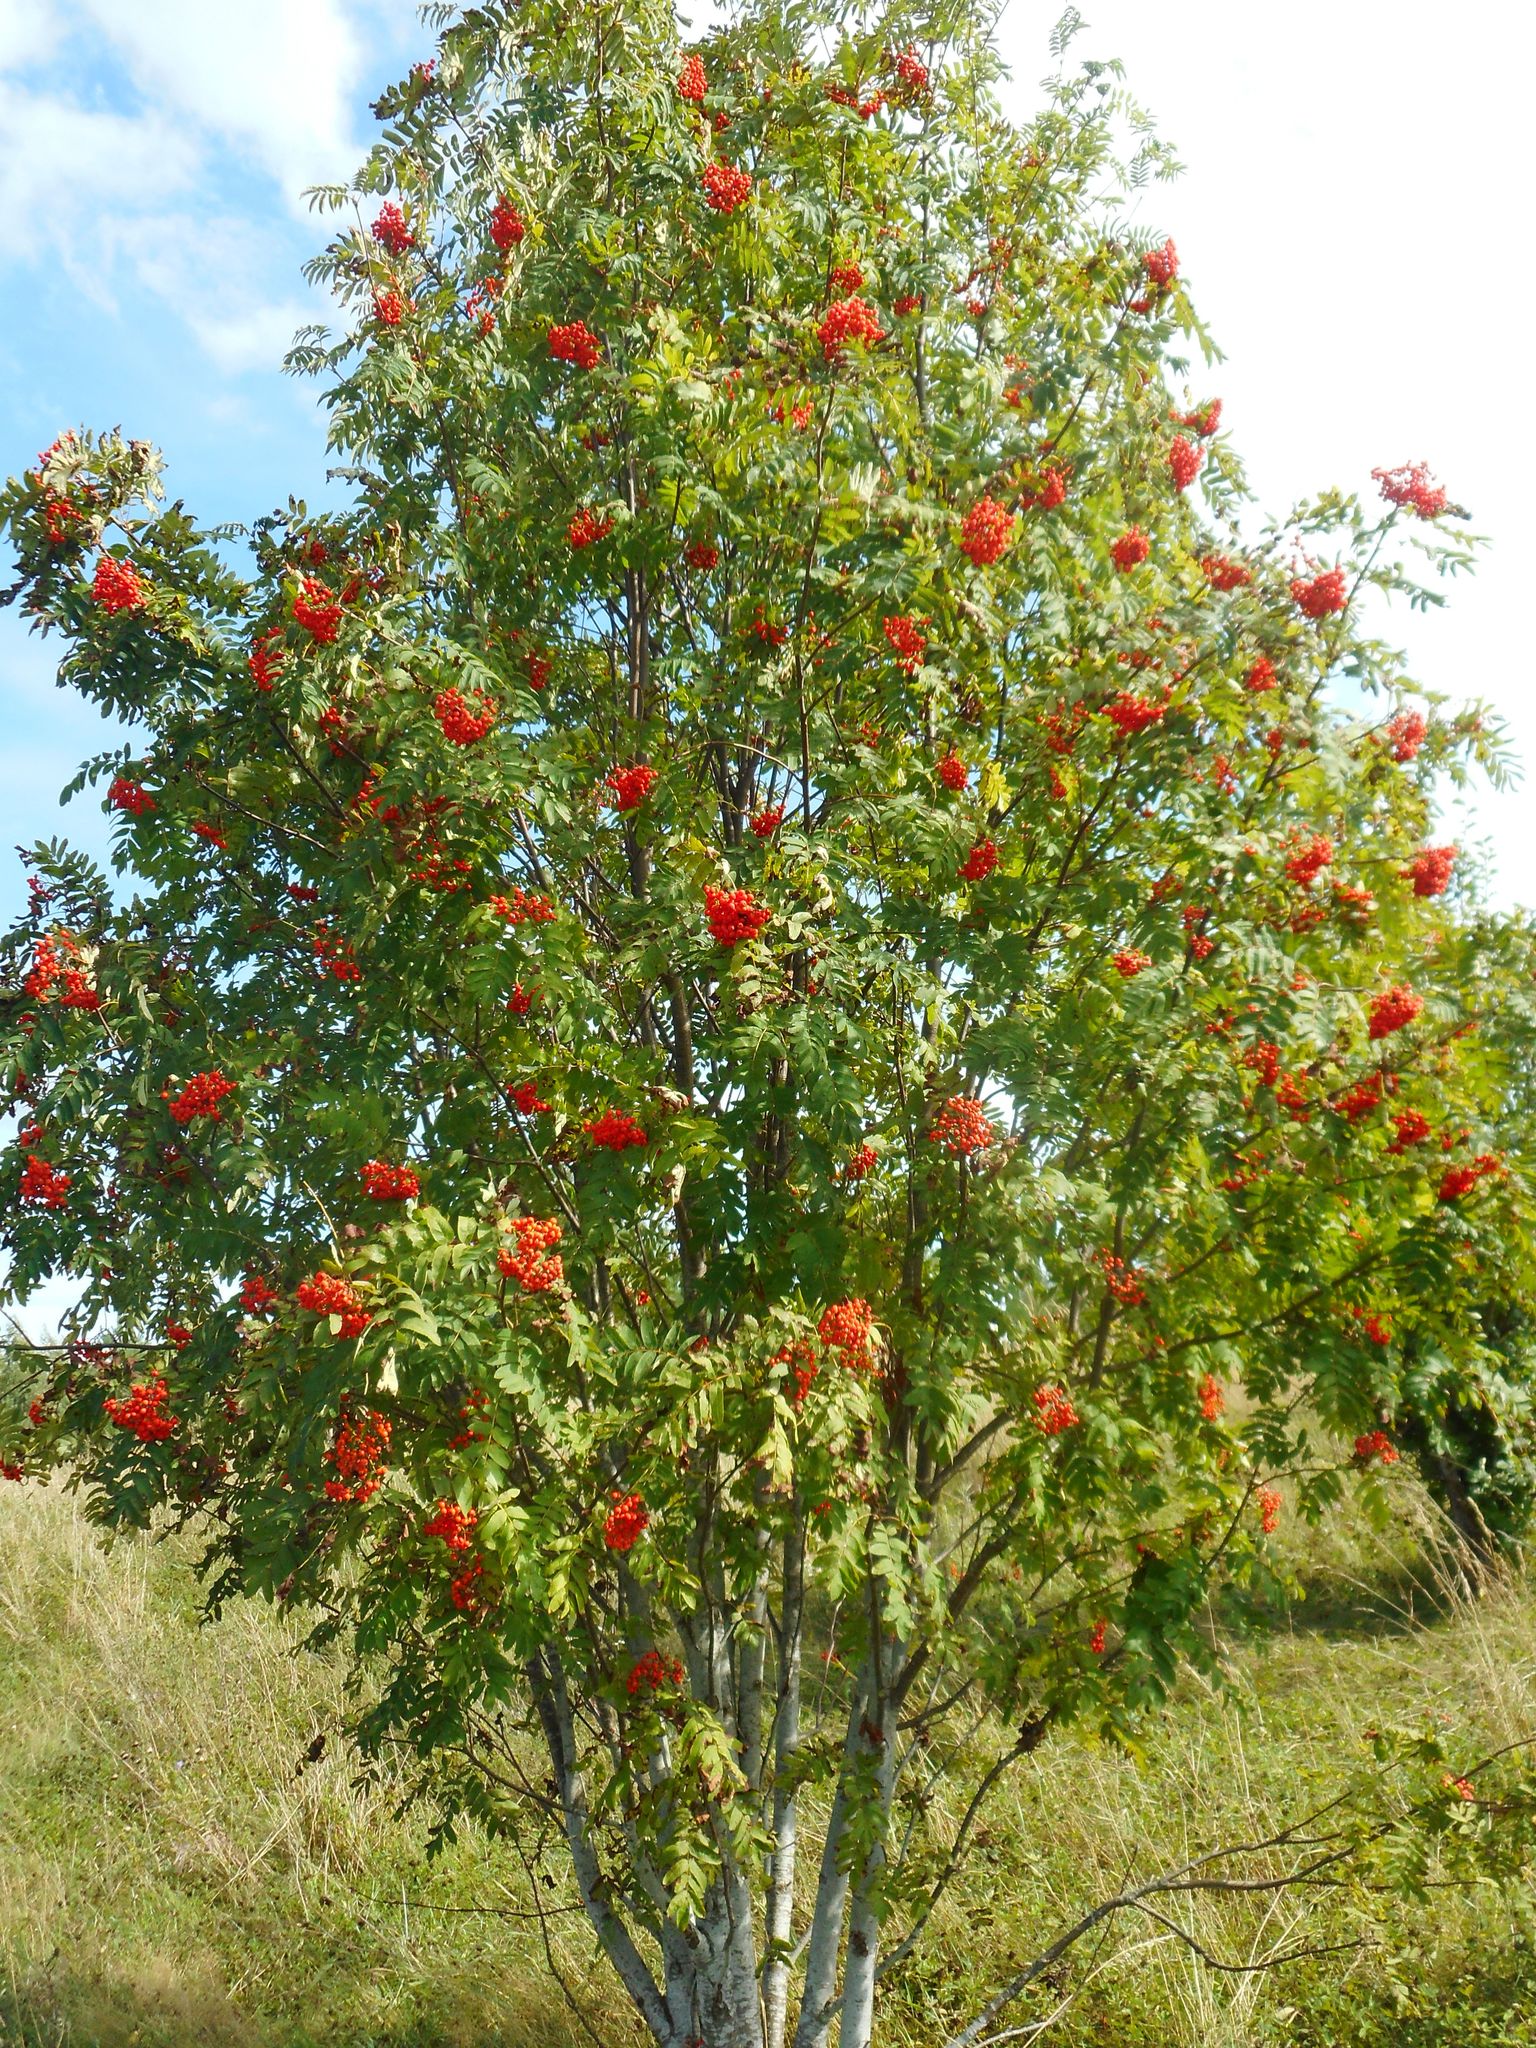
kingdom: Plantae
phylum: Tracheophyta
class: Magnoliopsida
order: Rosales
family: Rosaceae
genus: Sorbus
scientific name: Sorbus aucuparia
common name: Rowan
